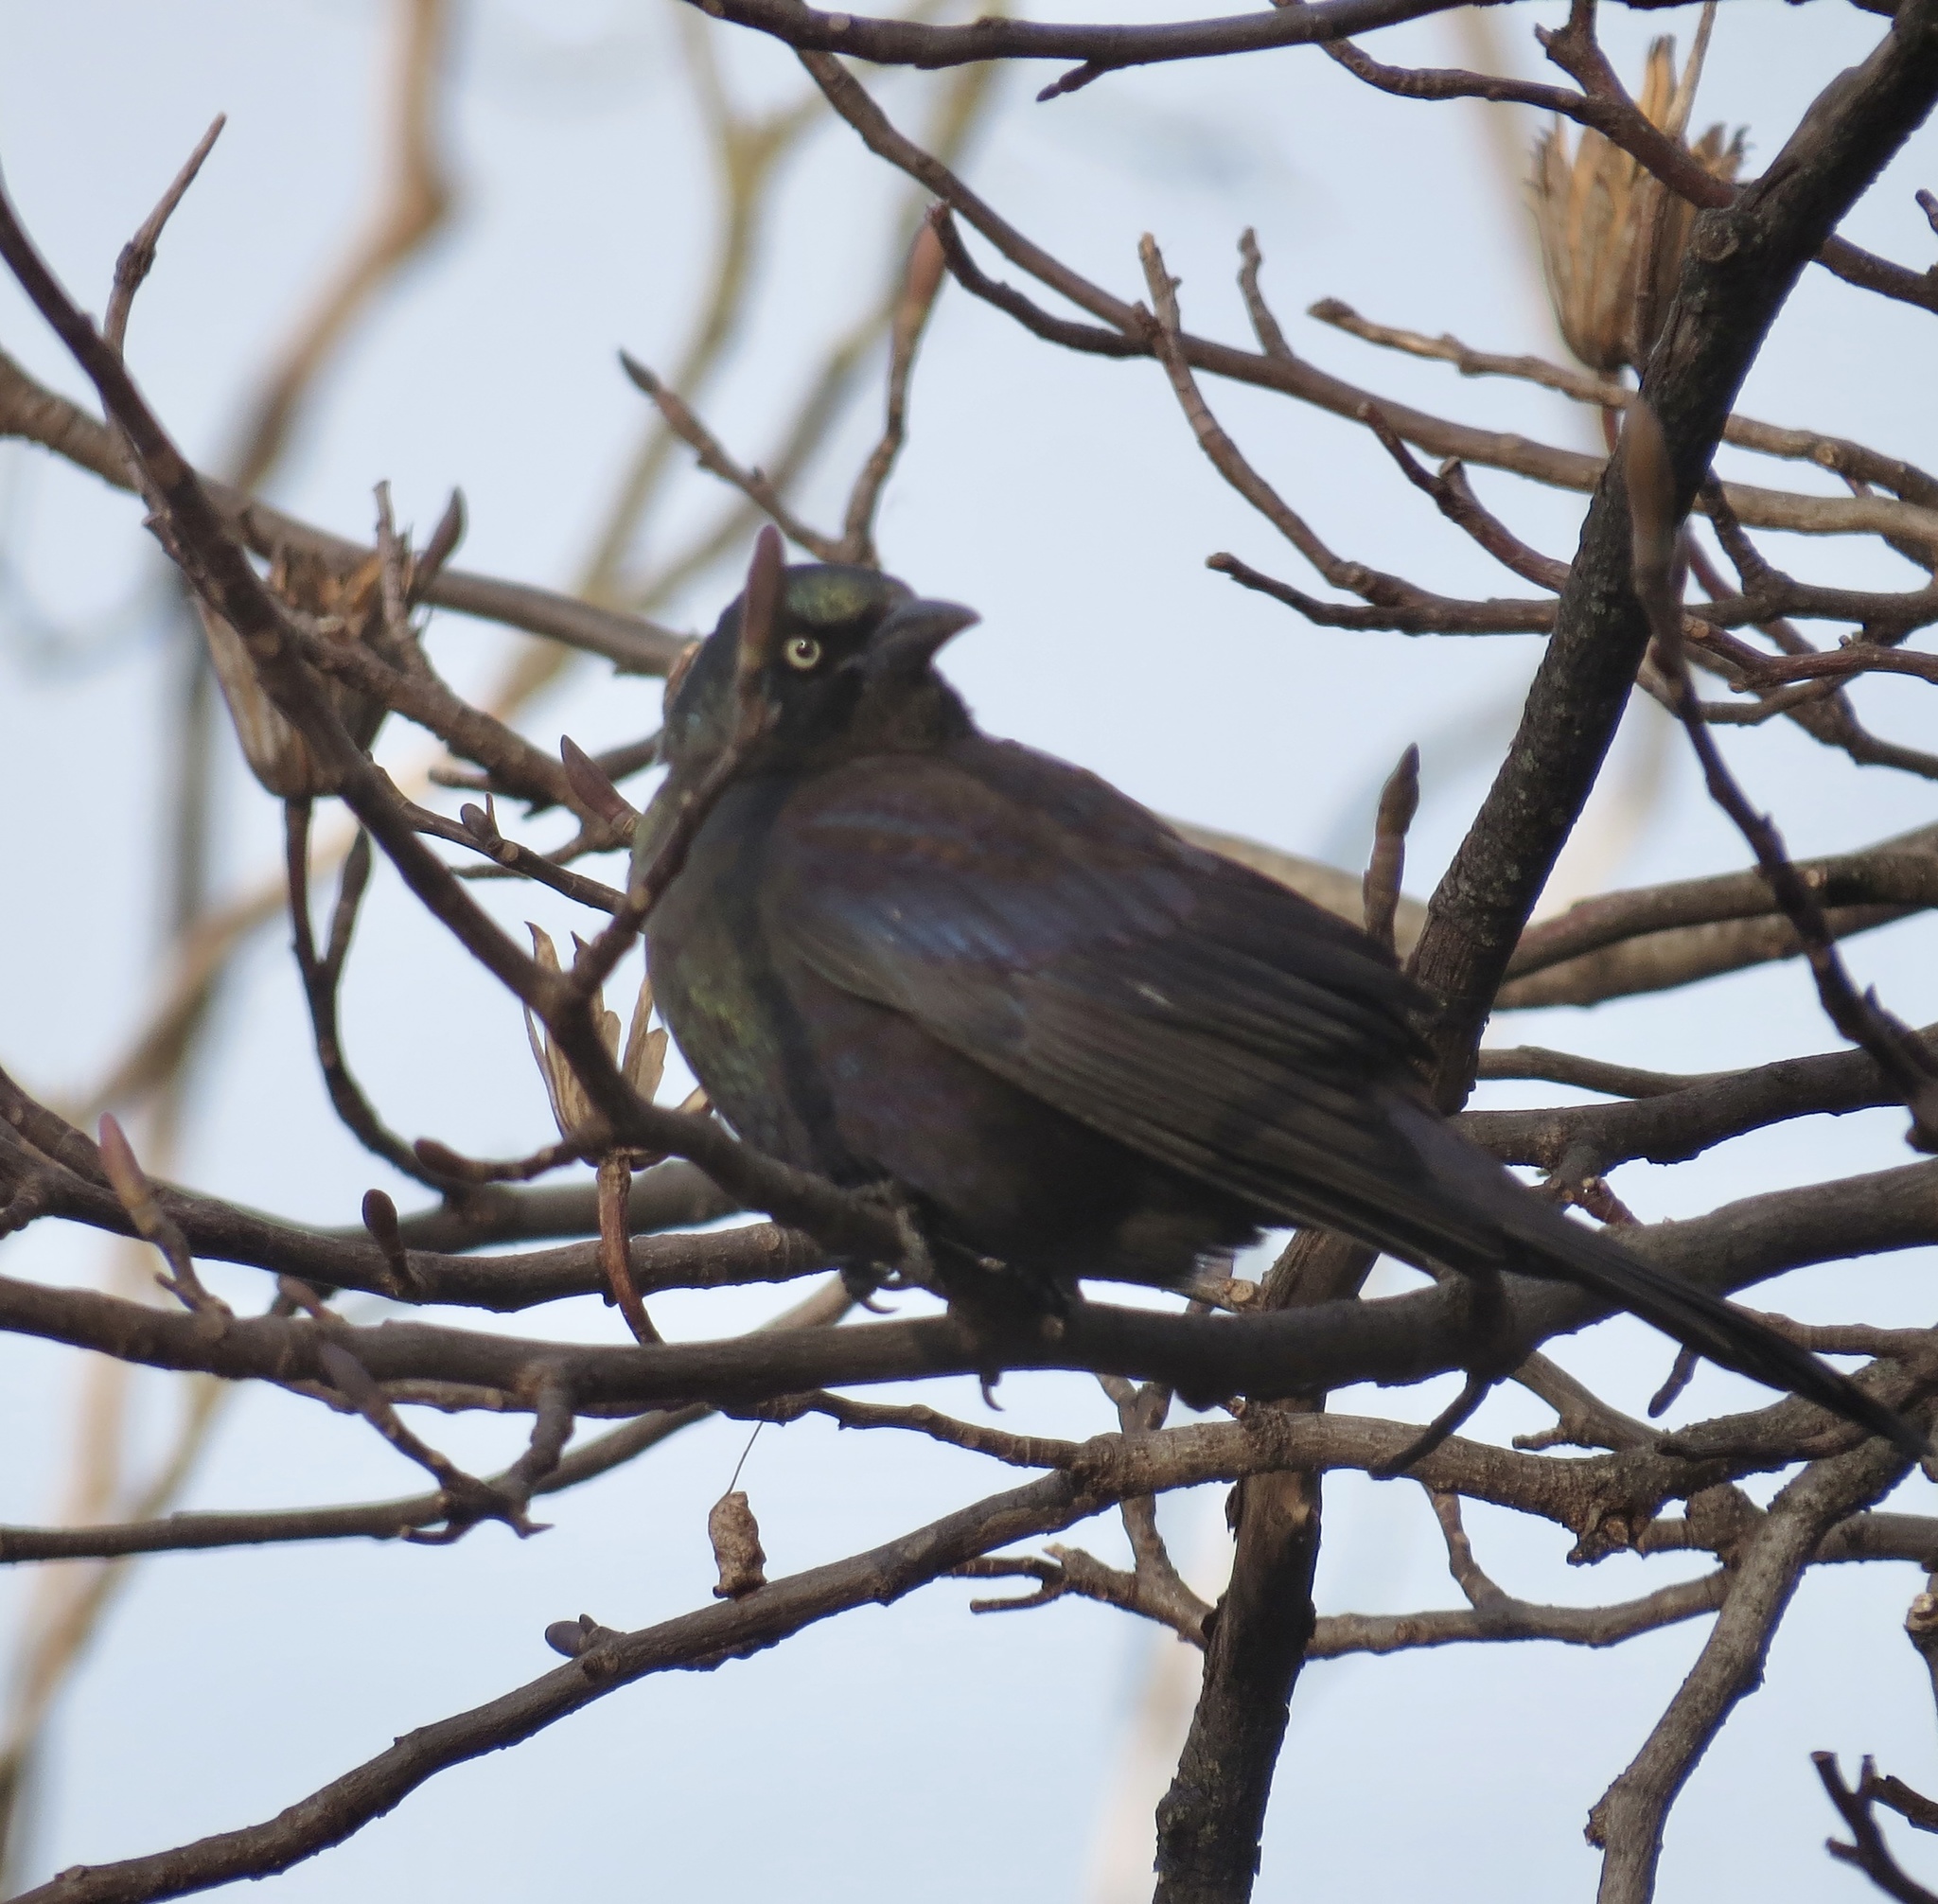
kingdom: Animalia
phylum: Chordata
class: Aves
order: Passeriformes
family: Icteridae
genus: Quiscalus
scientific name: Quiscalus quiscula
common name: Common grackle
